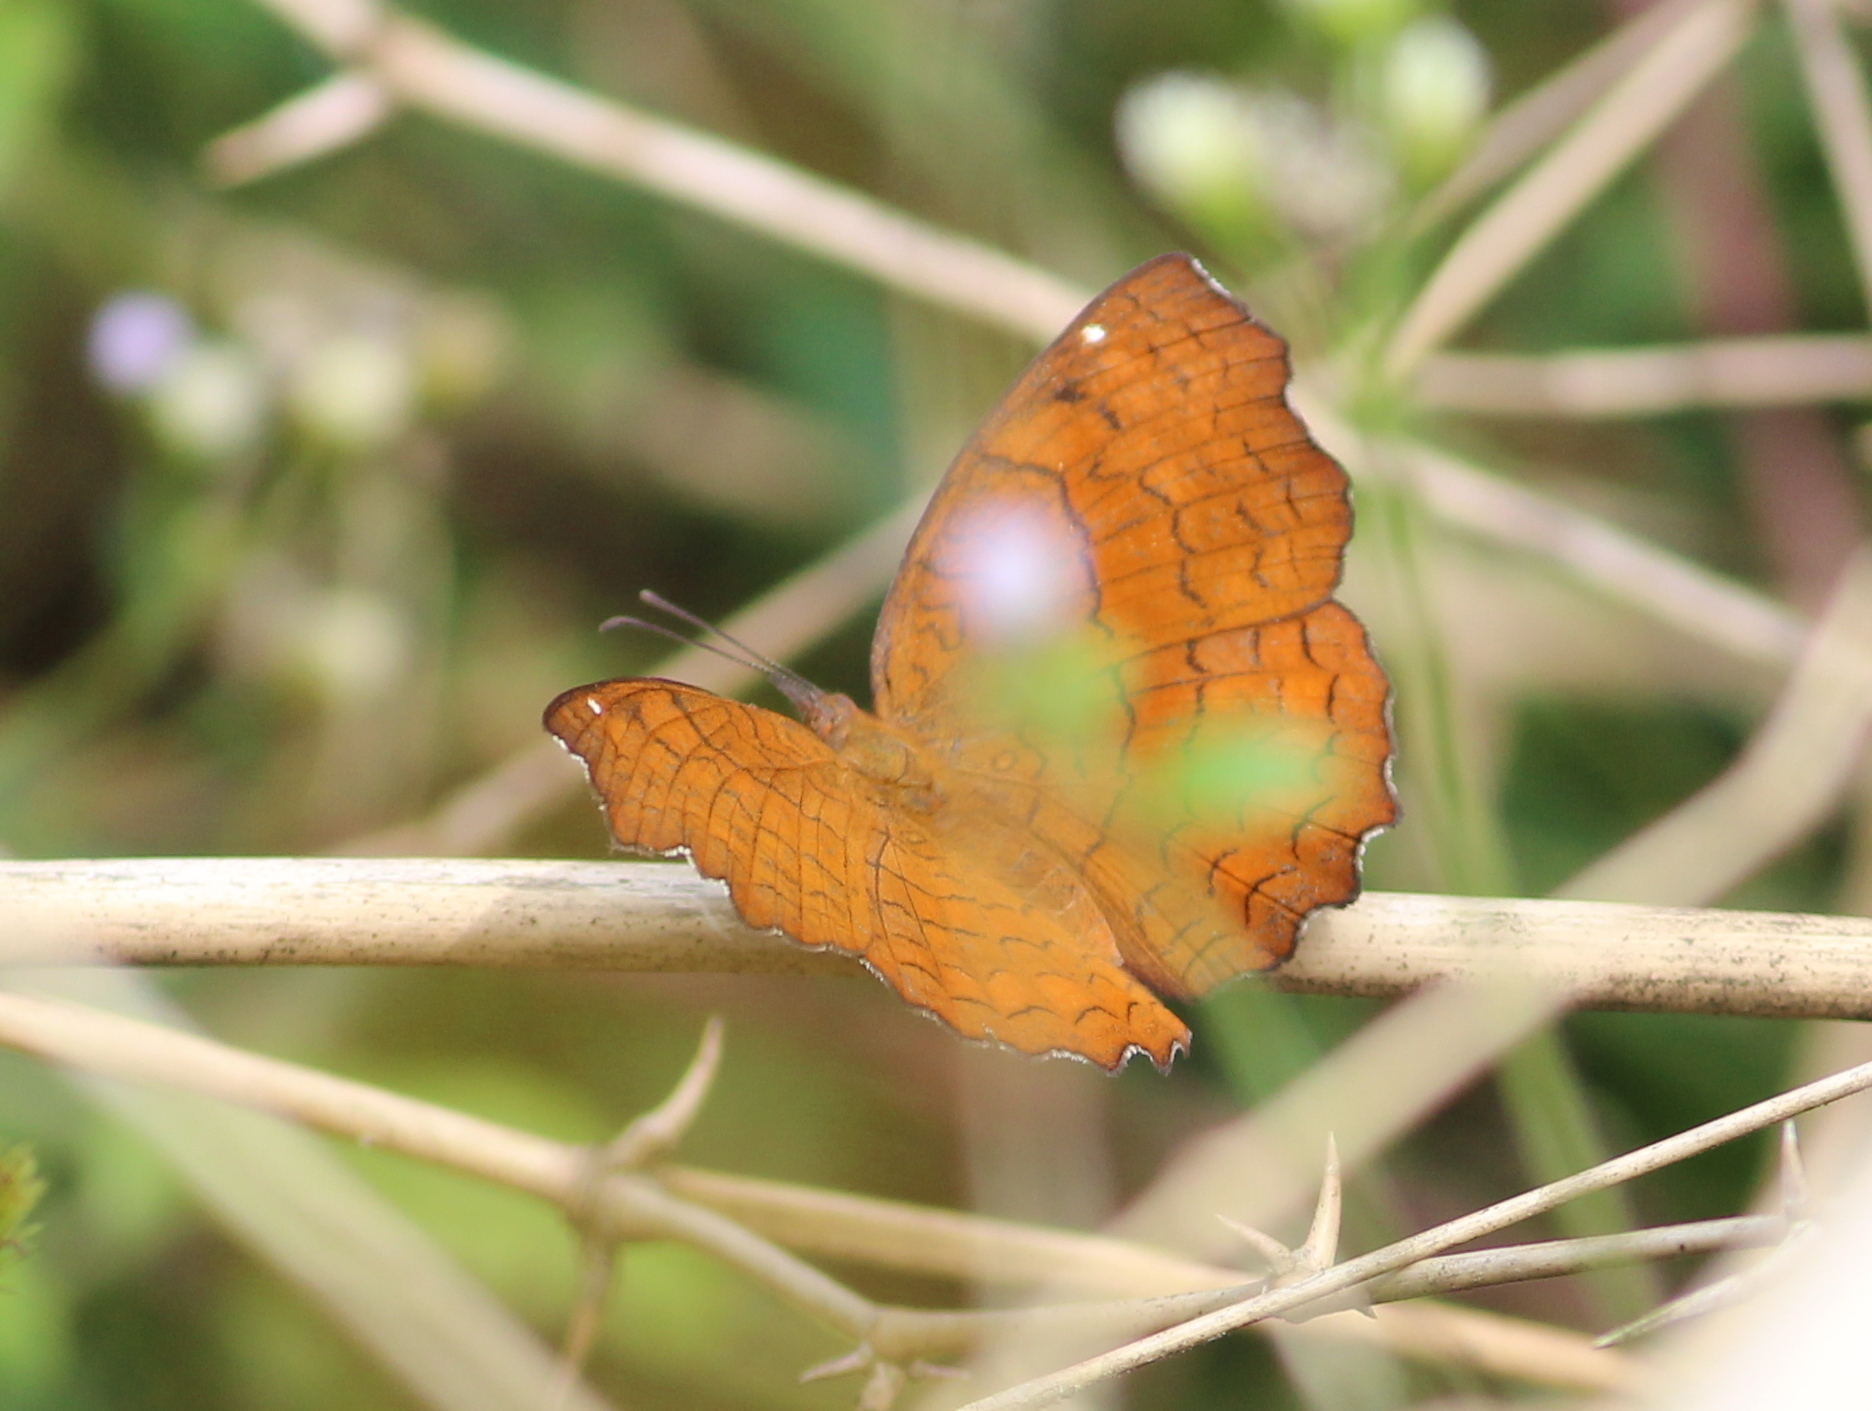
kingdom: Animalia
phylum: Arthropoda
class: Insecta
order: Lepidoptera
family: Nymphalidae
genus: Ariadne
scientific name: Ariadne ariadne
